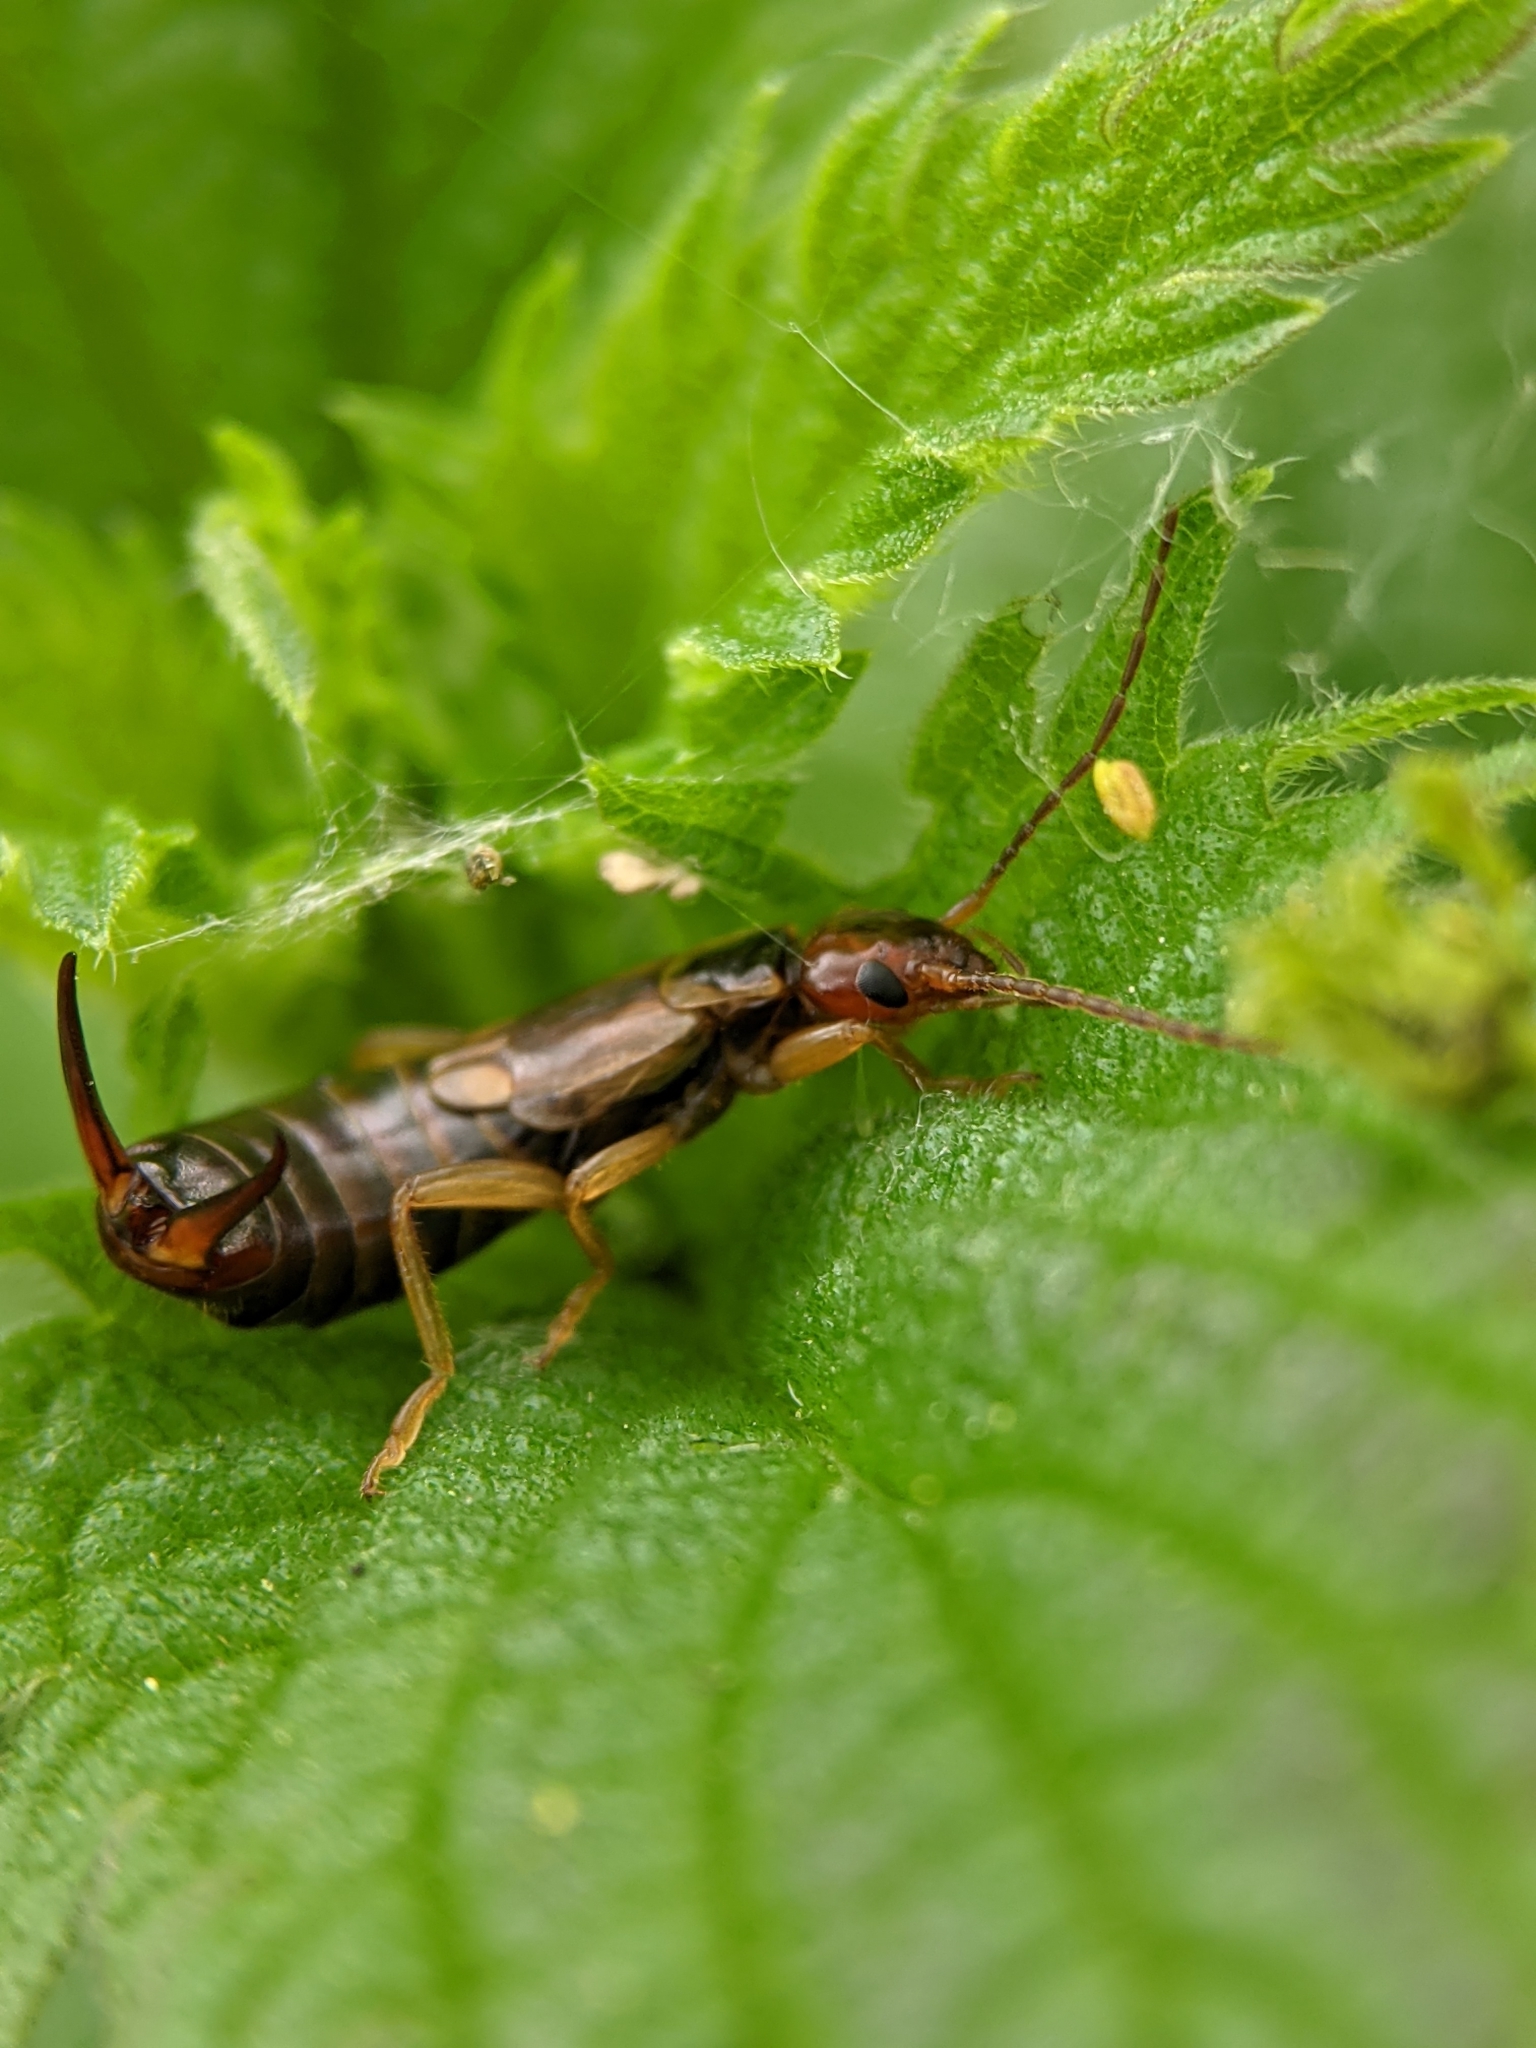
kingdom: Animalia
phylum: Arthropoda
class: Insecta
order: Dermaptera
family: Forficulidae
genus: Forficula
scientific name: Forficula
